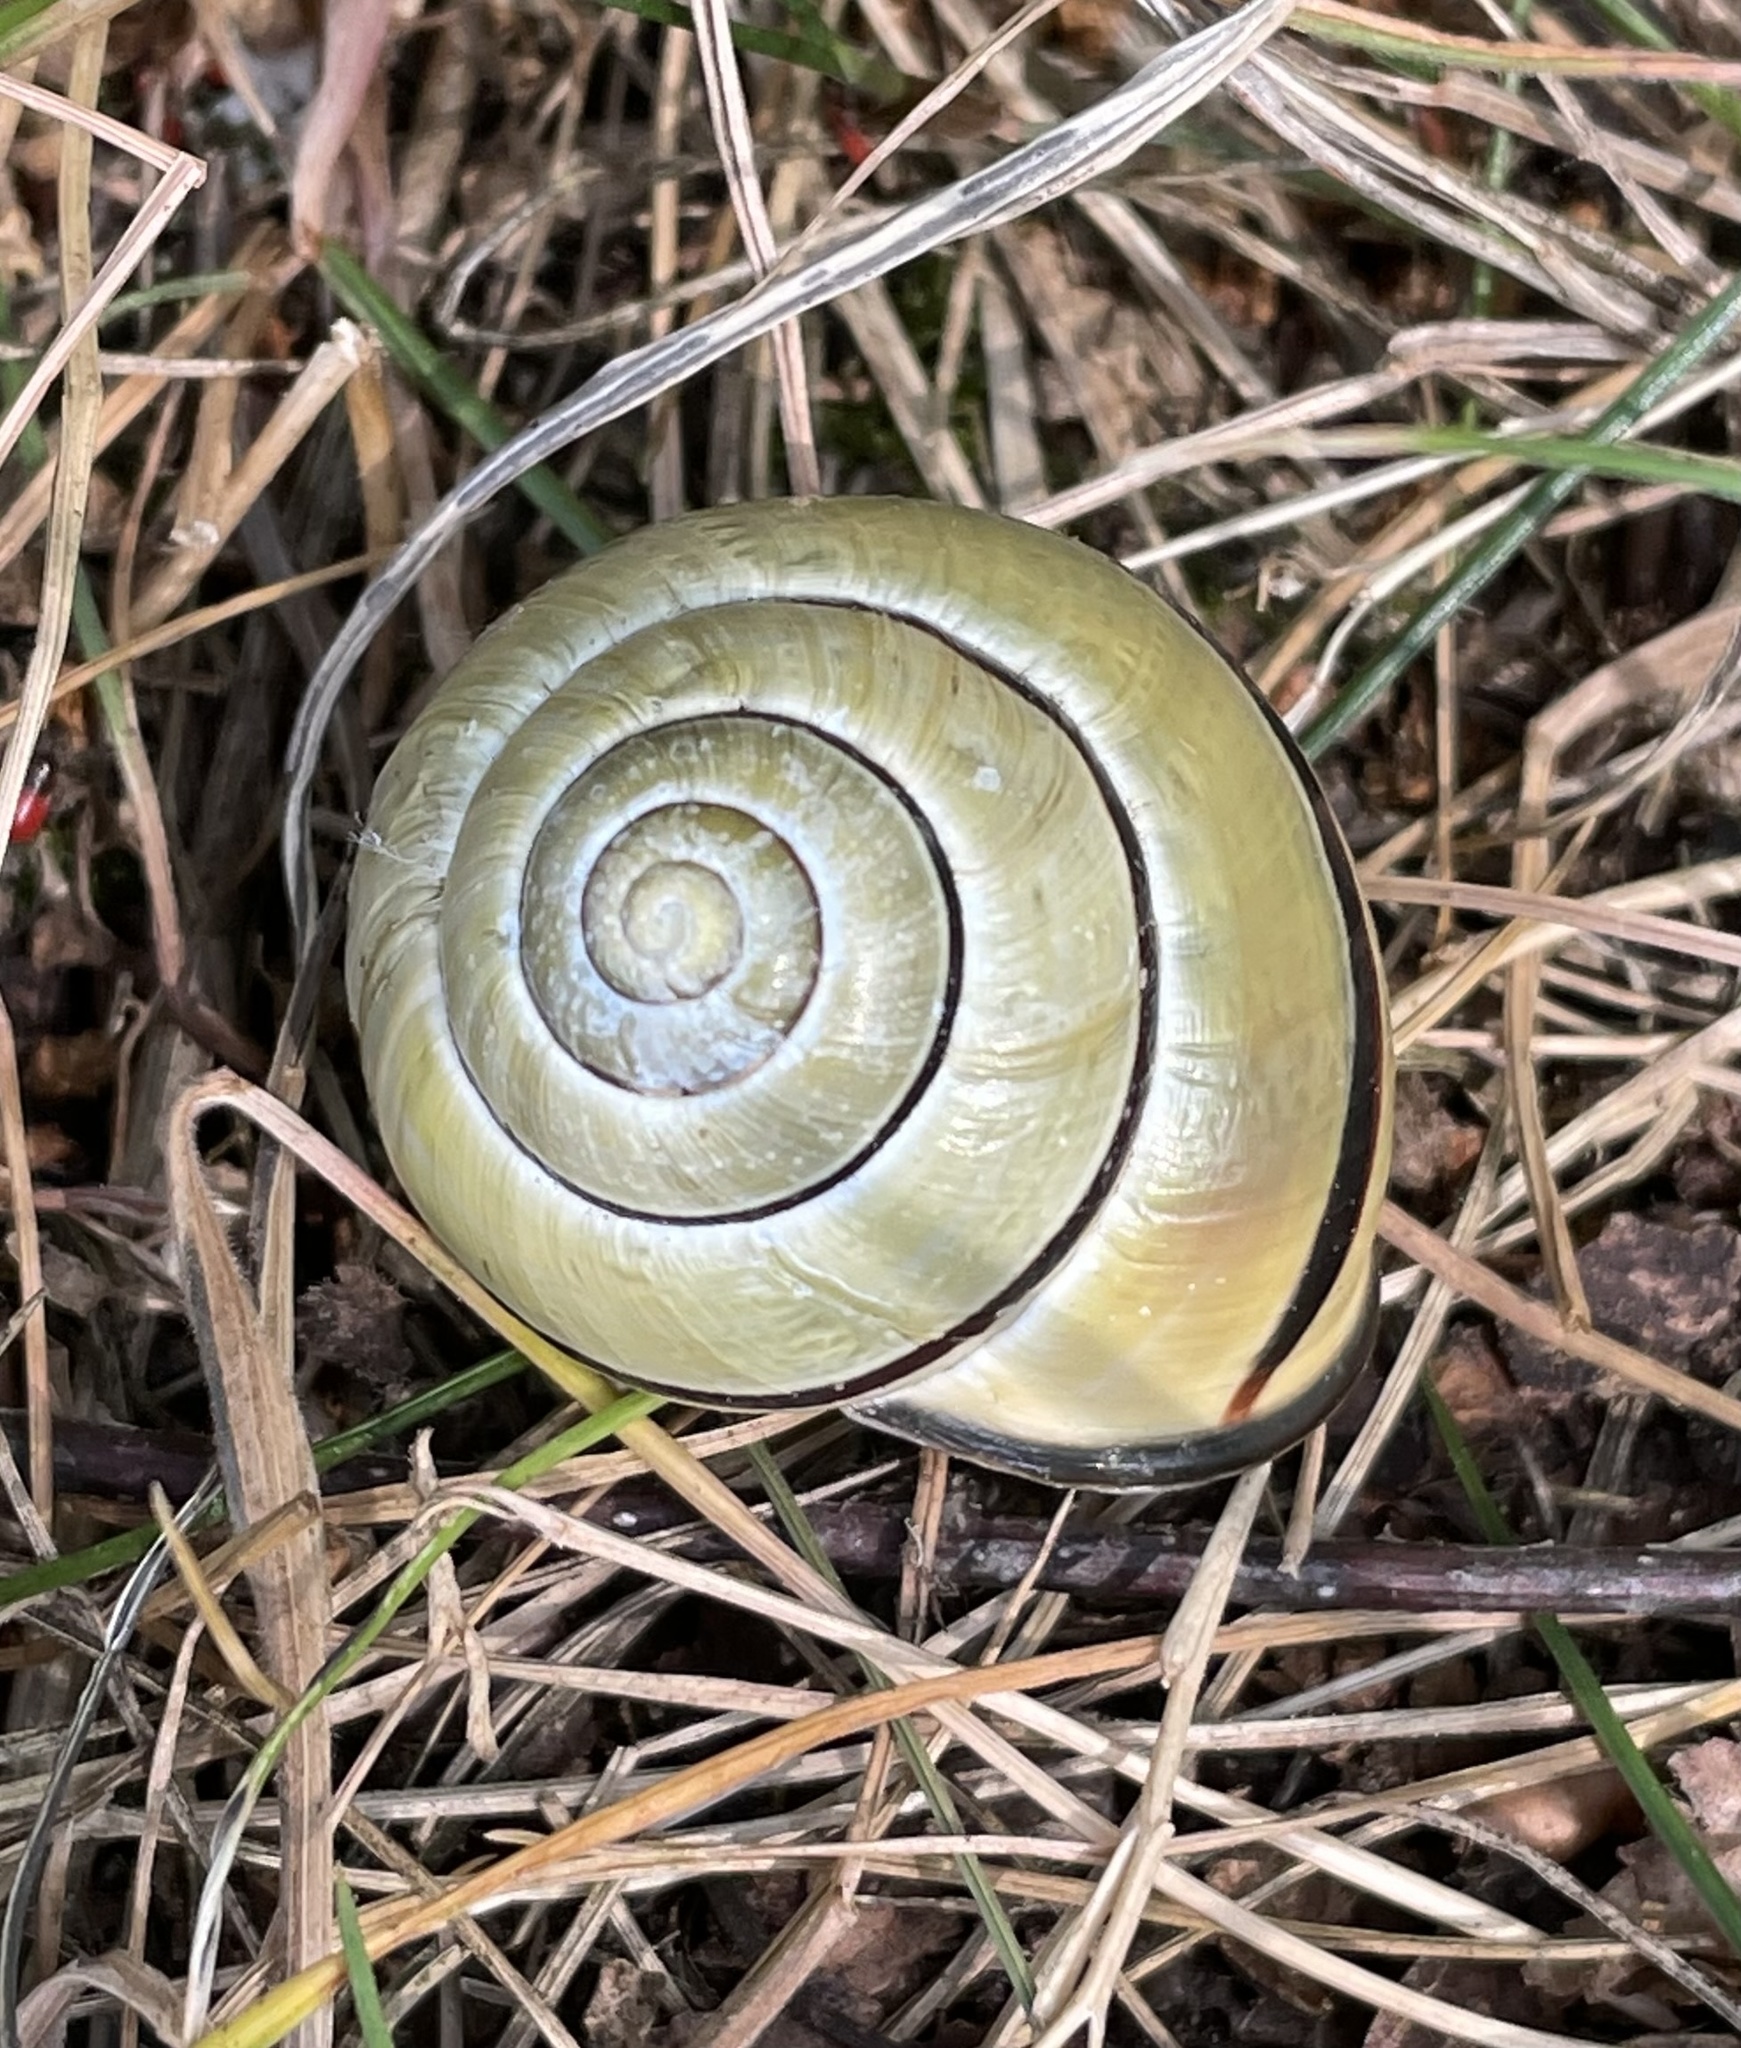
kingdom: Animalia
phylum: Mollusca
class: Gastropoda
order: Stylommatophora
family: Helicidae
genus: Cepaea
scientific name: Cepaea nemoralis
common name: Grovesnail
